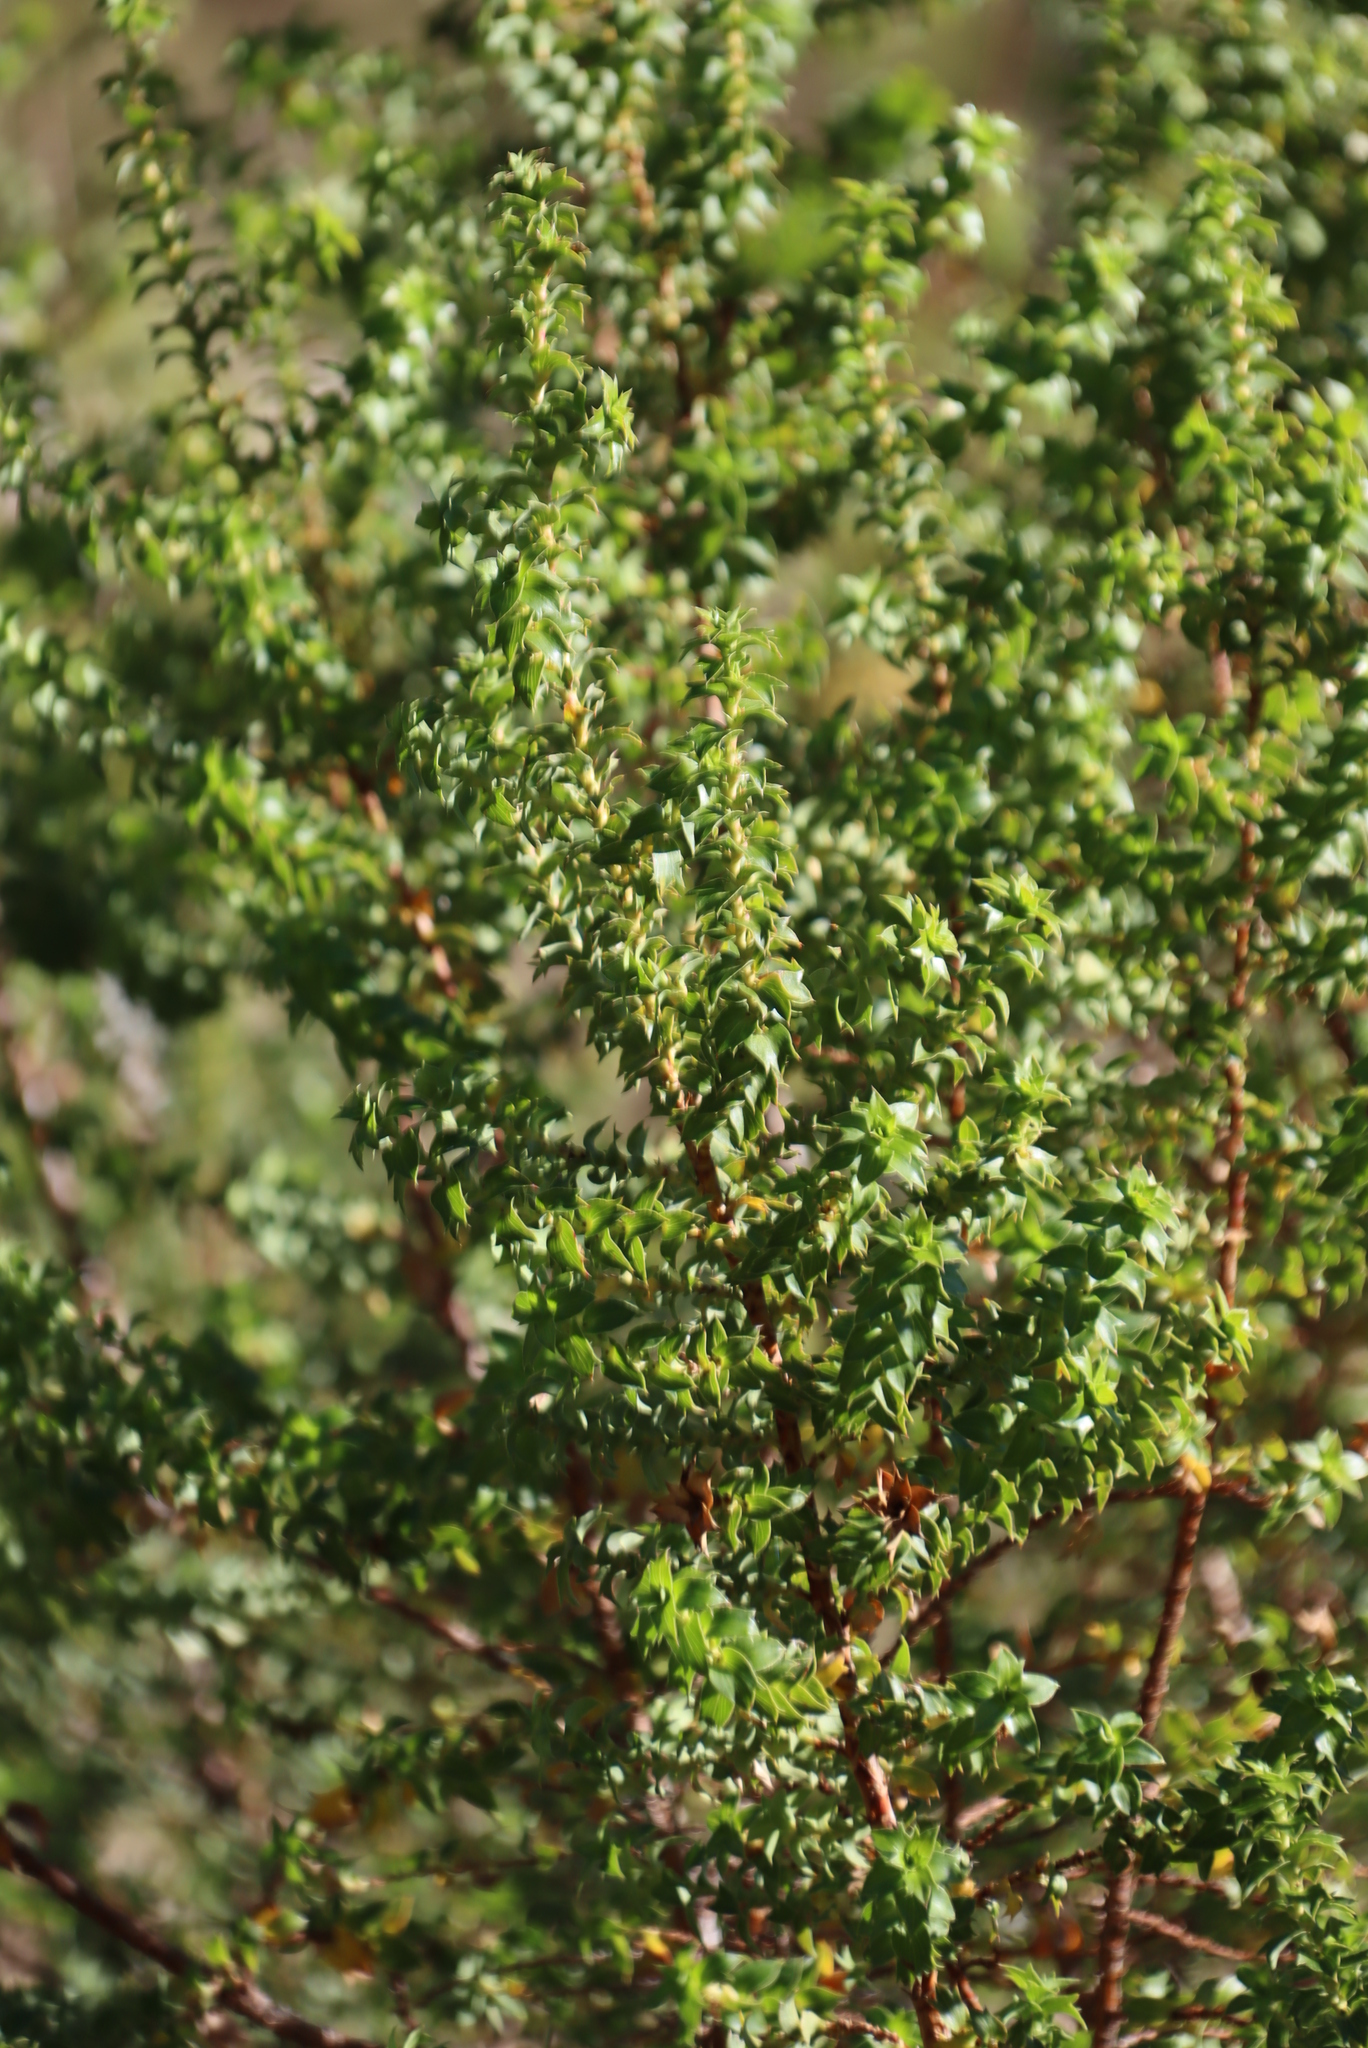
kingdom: Plantae
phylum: Tracheophyta
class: Magnoliopsida
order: Rosales
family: Rosaceae
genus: Cliffortia
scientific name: Cliffortia ilicifolia
